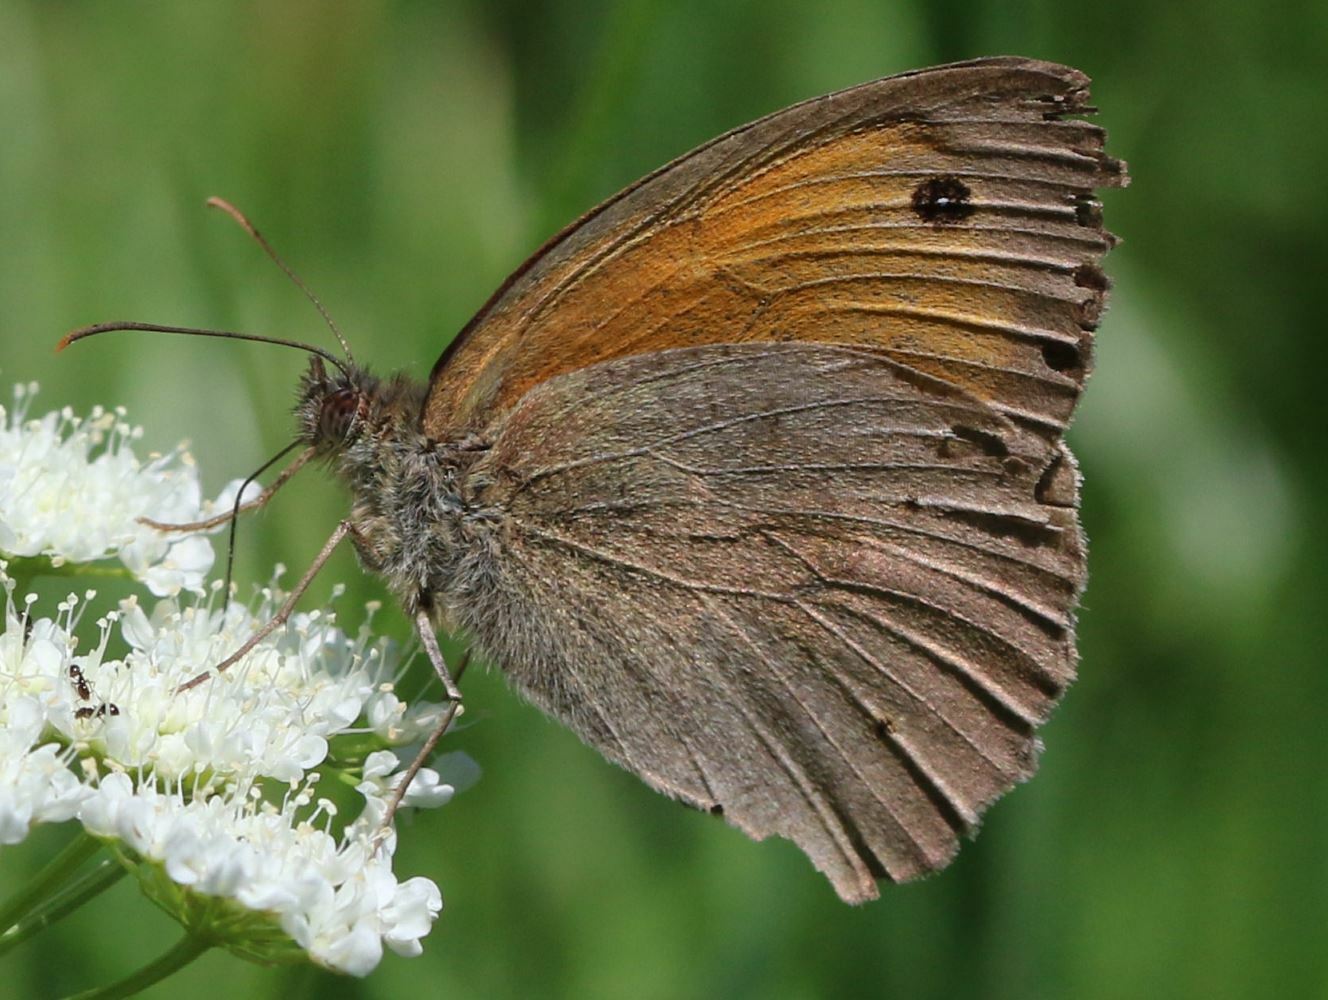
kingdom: Animalia
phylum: Arthropoda
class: Insecta
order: Lepidoptera
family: Nymphalidae
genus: Maniola
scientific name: Maniola jurtina
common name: Meadow brown
